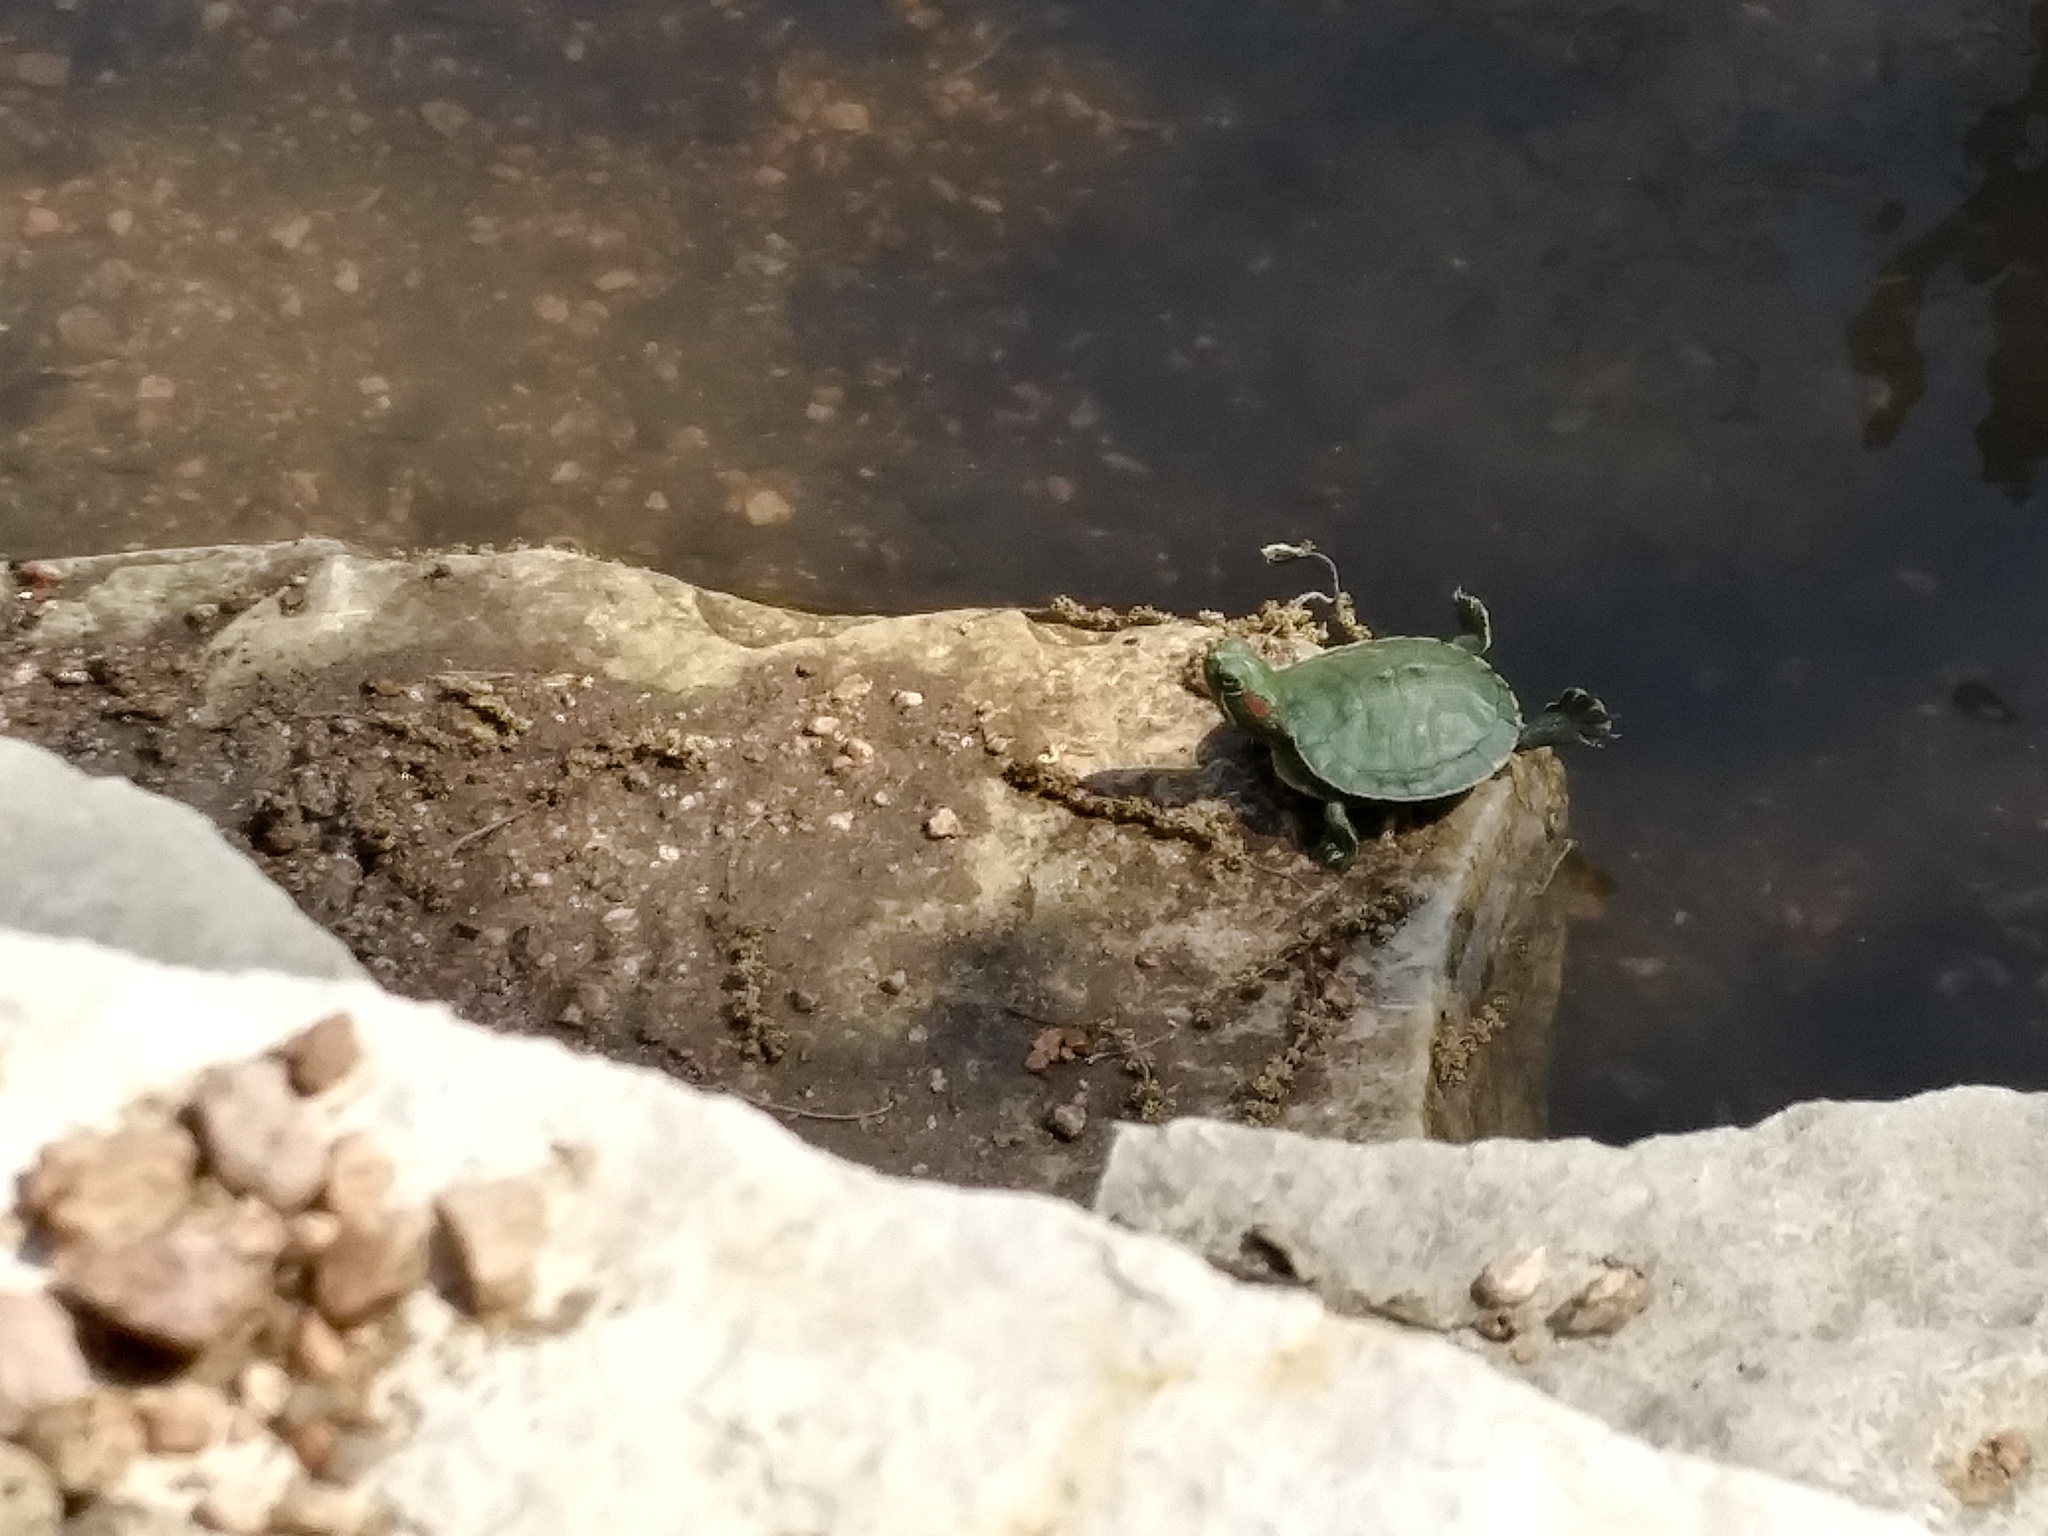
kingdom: Animalia
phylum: Chordata
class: Testudines
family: Emydidae
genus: Trachemys
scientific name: Trachemys scripta
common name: Slider
